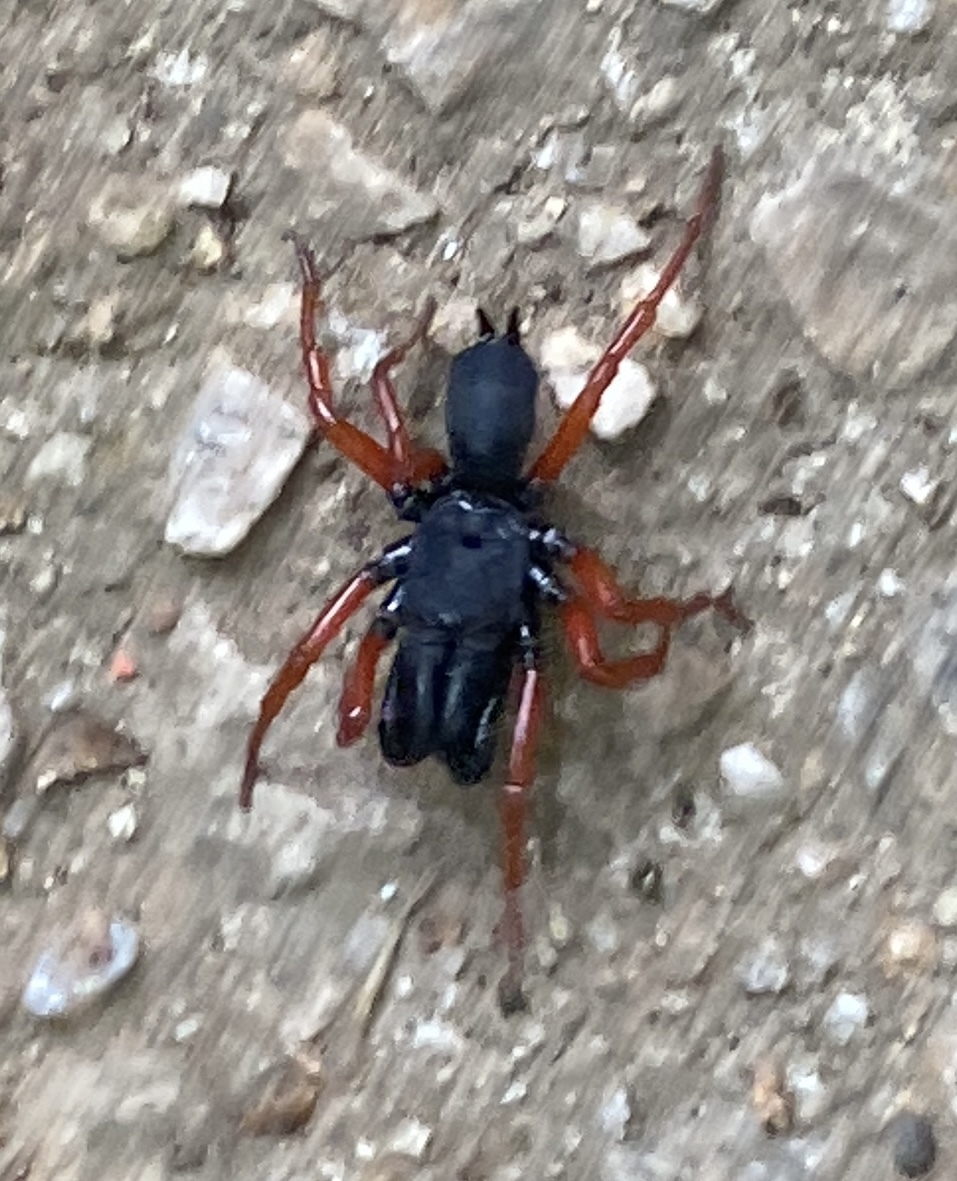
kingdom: Animalia
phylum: Arthropoda
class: Arachnida
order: Araneae
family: Atypidae
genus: Sphodros
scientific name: Sphodros rufipes
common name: Red-legged purseweb spider
